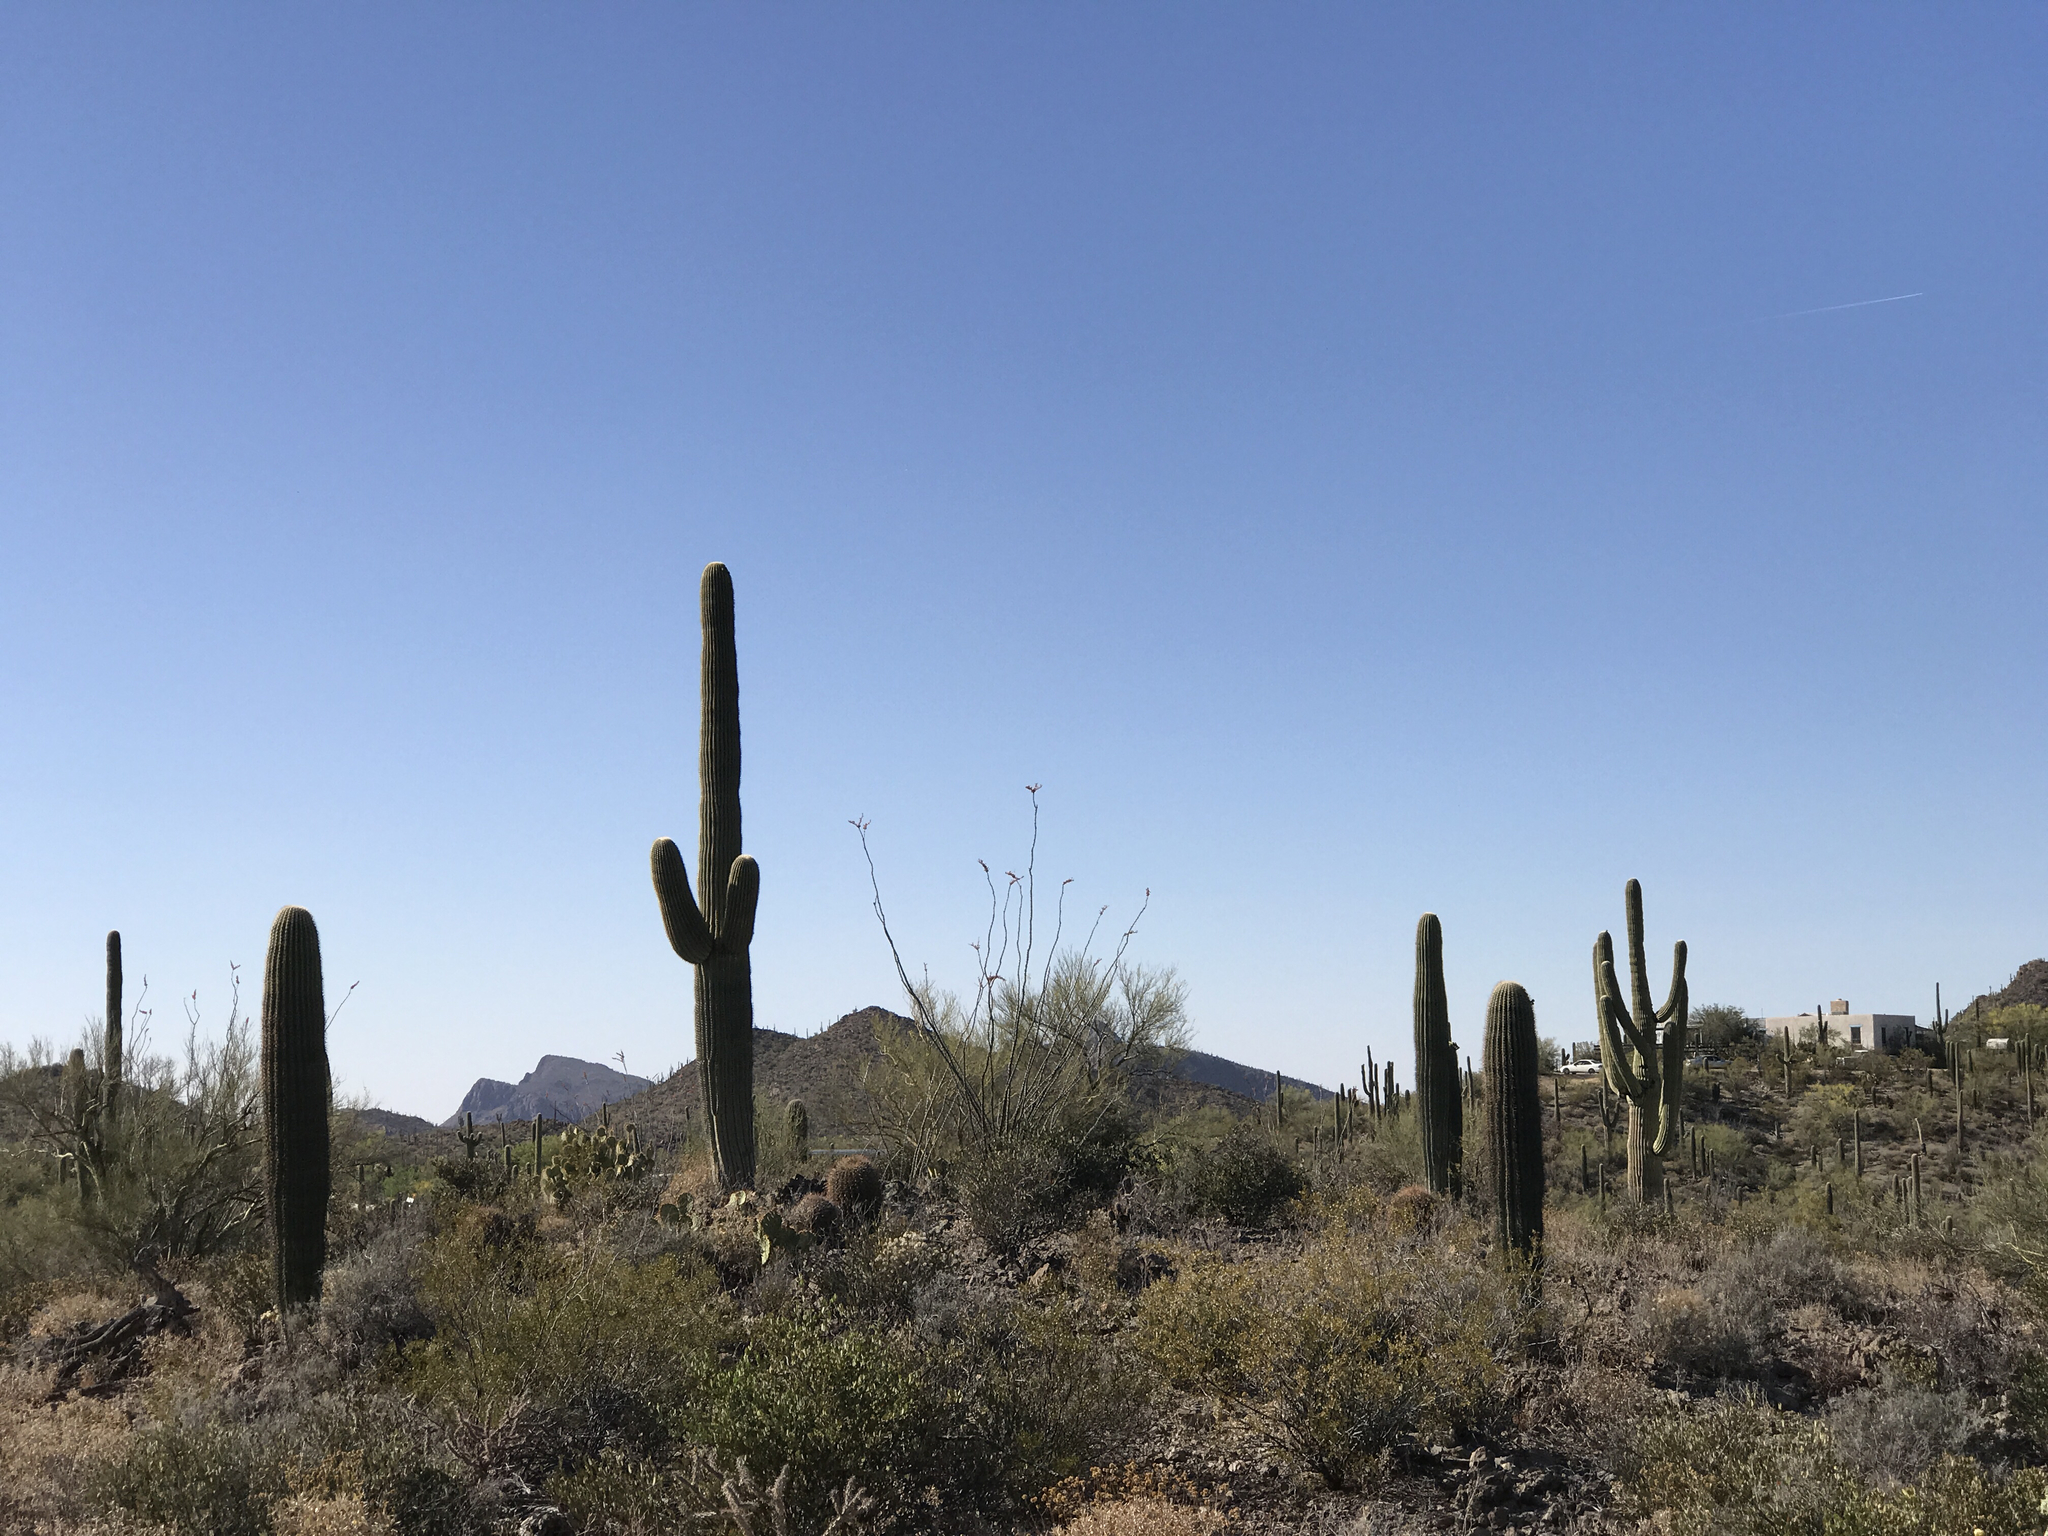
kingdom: Plantae
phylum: Tracheophyta
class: Magnoliopsida
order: Caryophyllales
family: Cactaceae
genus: Carnegiea
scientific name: Carnegiea gigantea
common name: Saguaro
